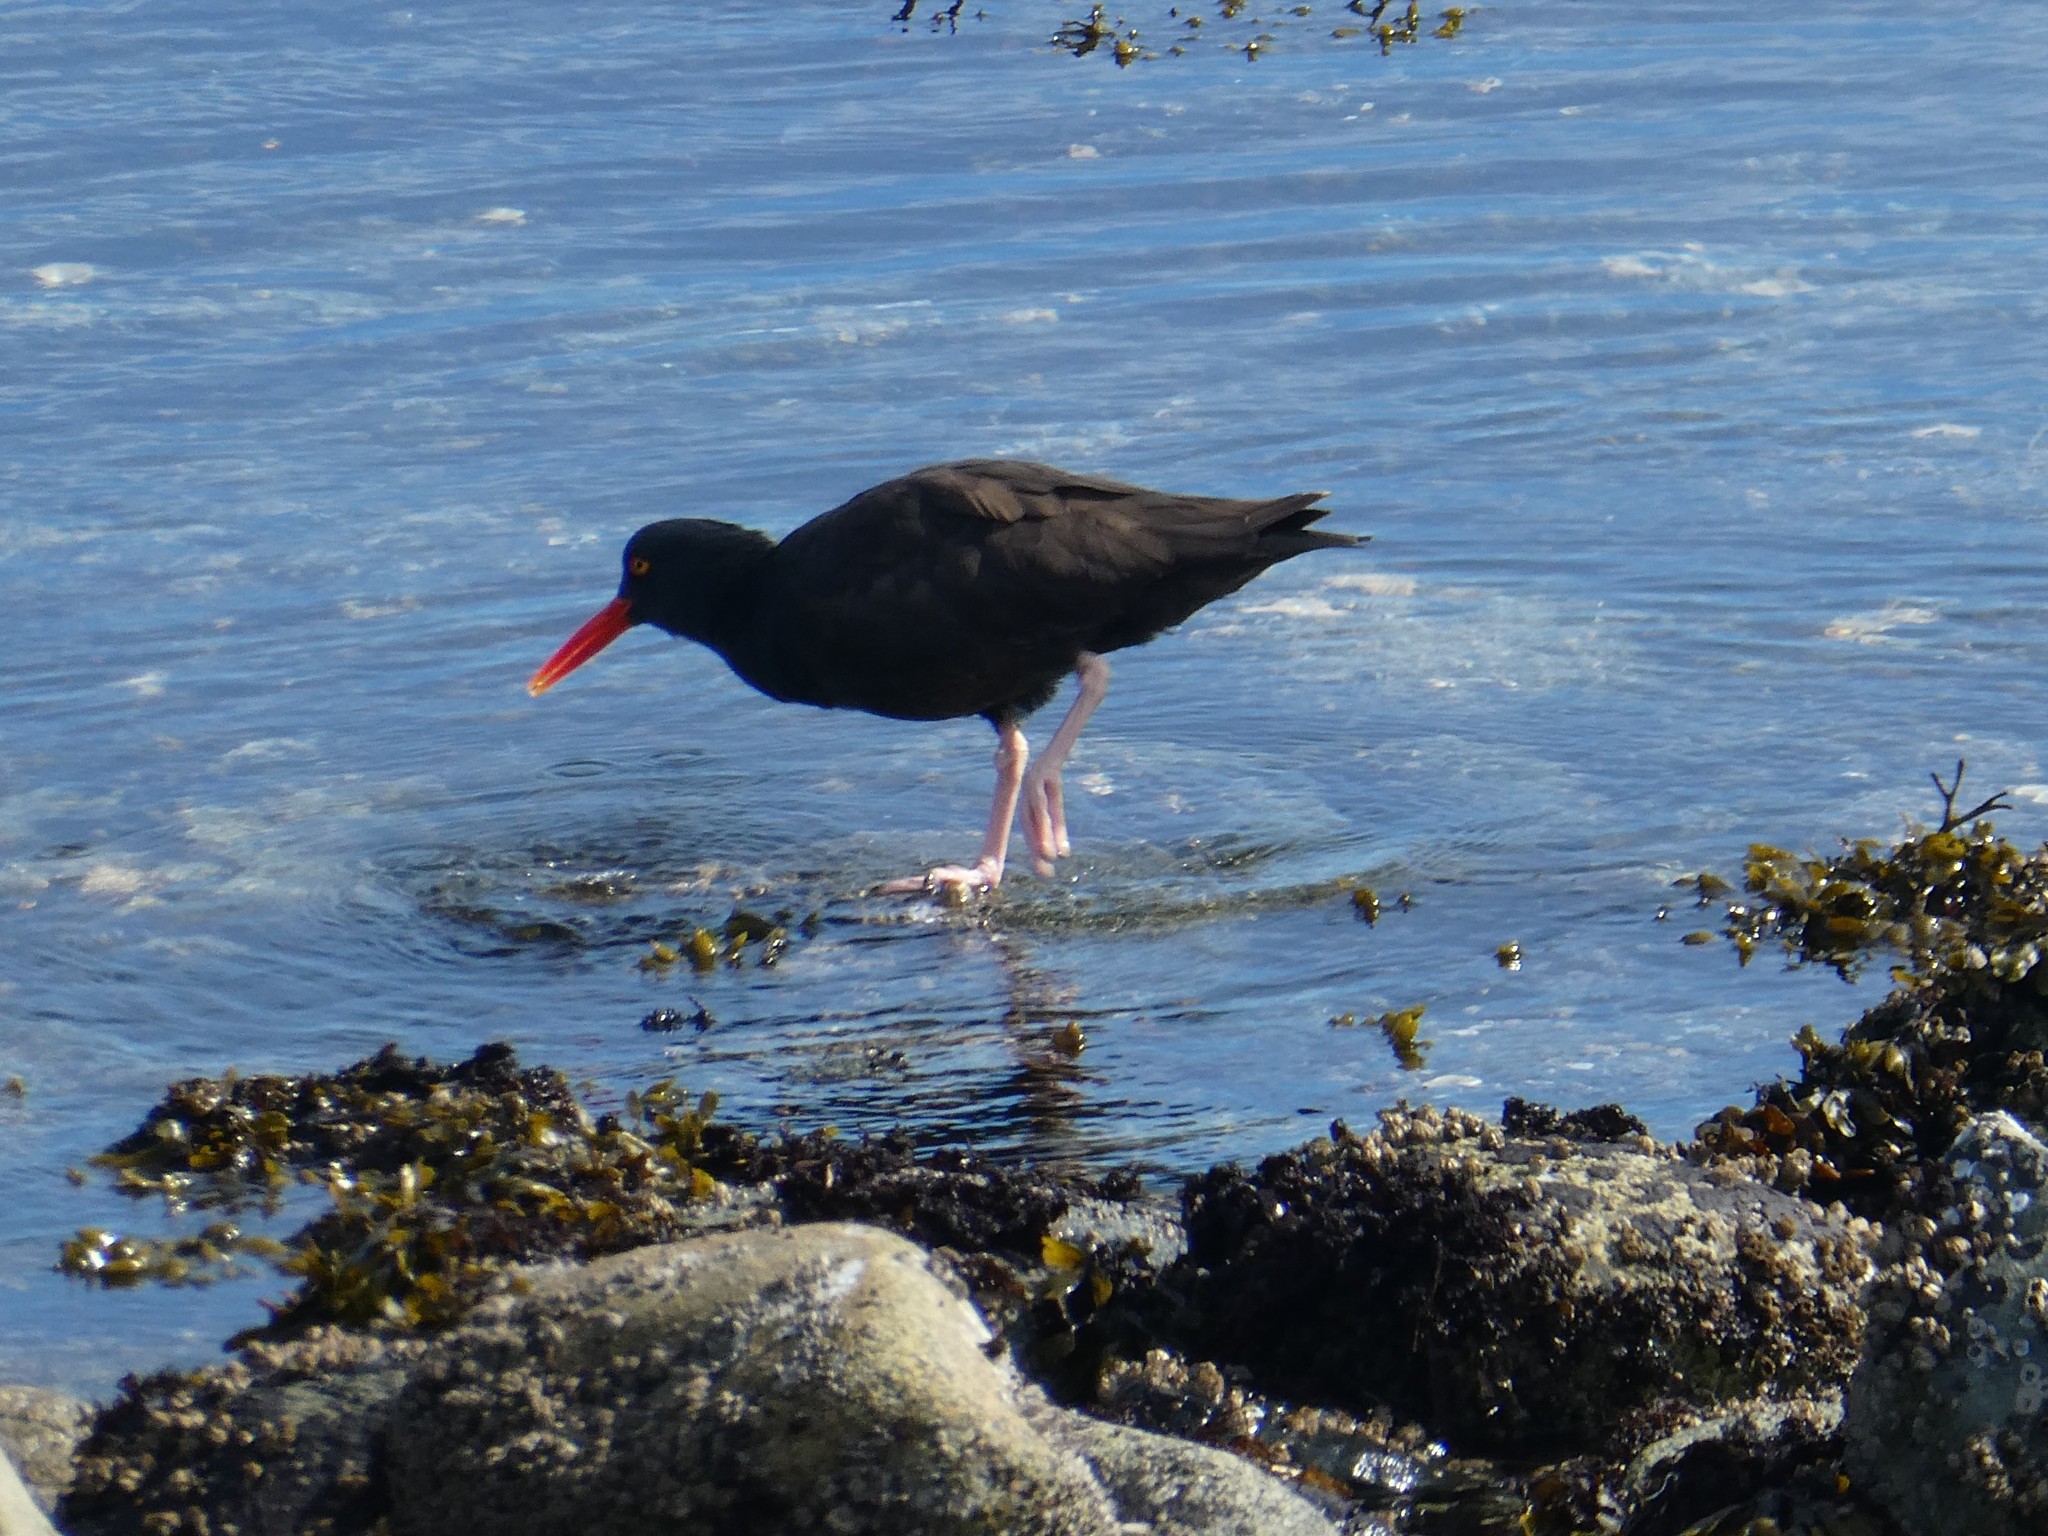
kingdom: Animalia
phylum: Chordata
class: Aves
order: Charadriiformes
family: Haematopodidae
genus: Haematopus
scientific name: Haematopus bachmani
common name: Black oystercatcher
